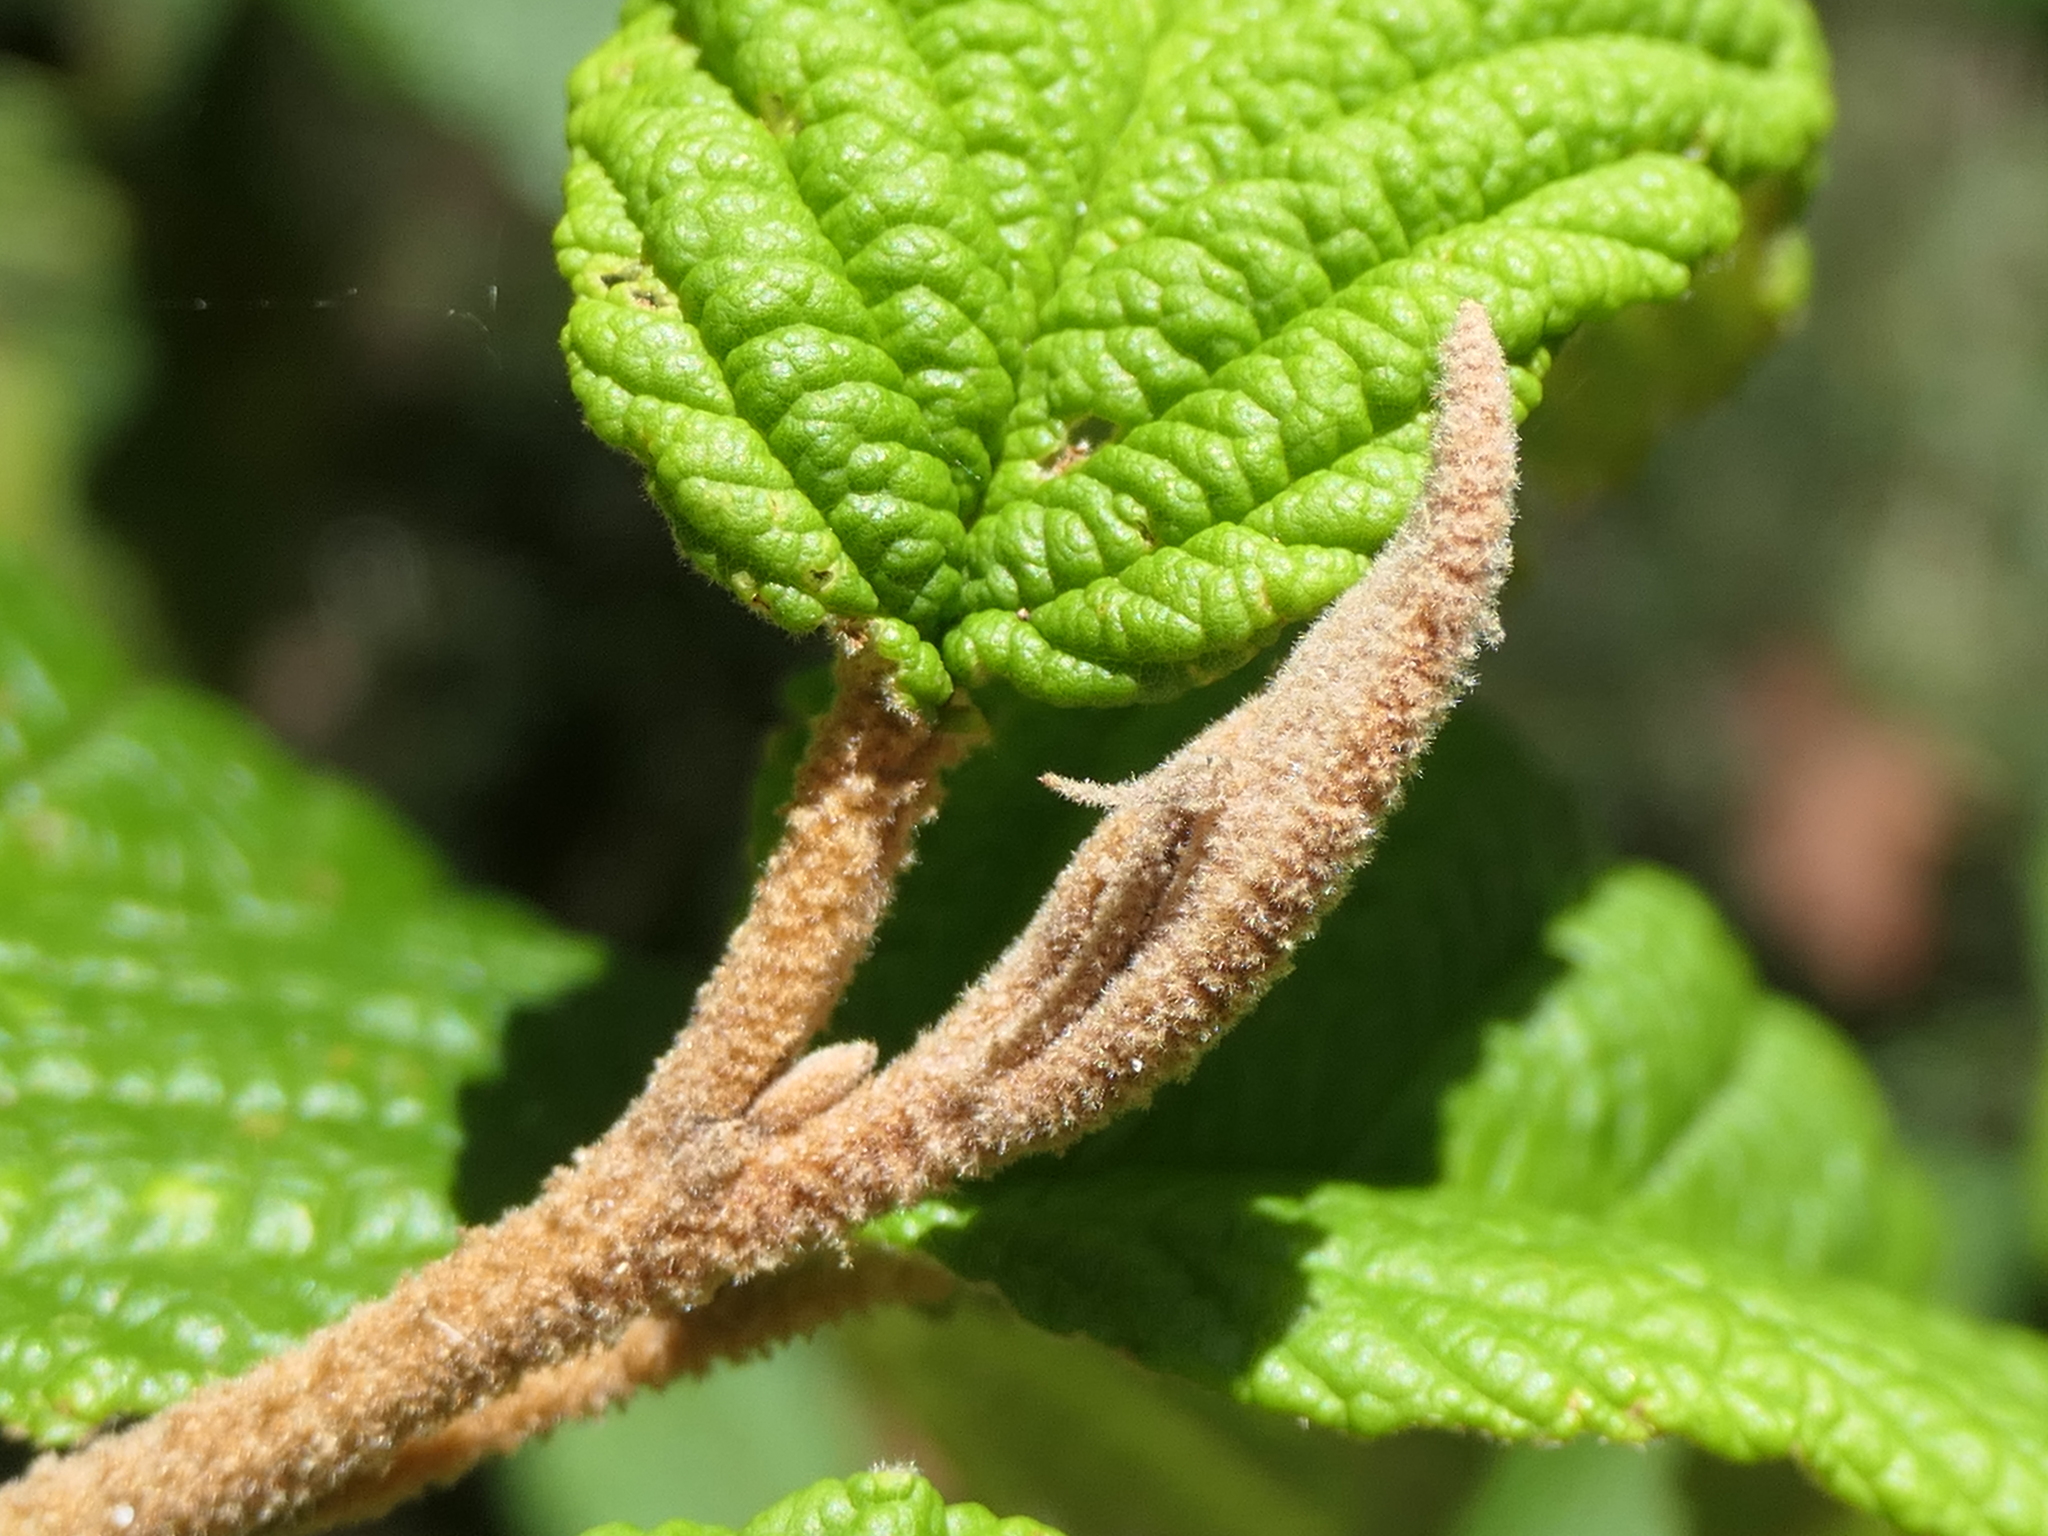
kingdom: Plantae
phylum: Tracheophyta
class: Magnoliopsida
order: Rosales
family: Rhamnaceae
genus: Pomaderris
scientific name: Pomaderris aspera
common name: Hazel pomaderris
